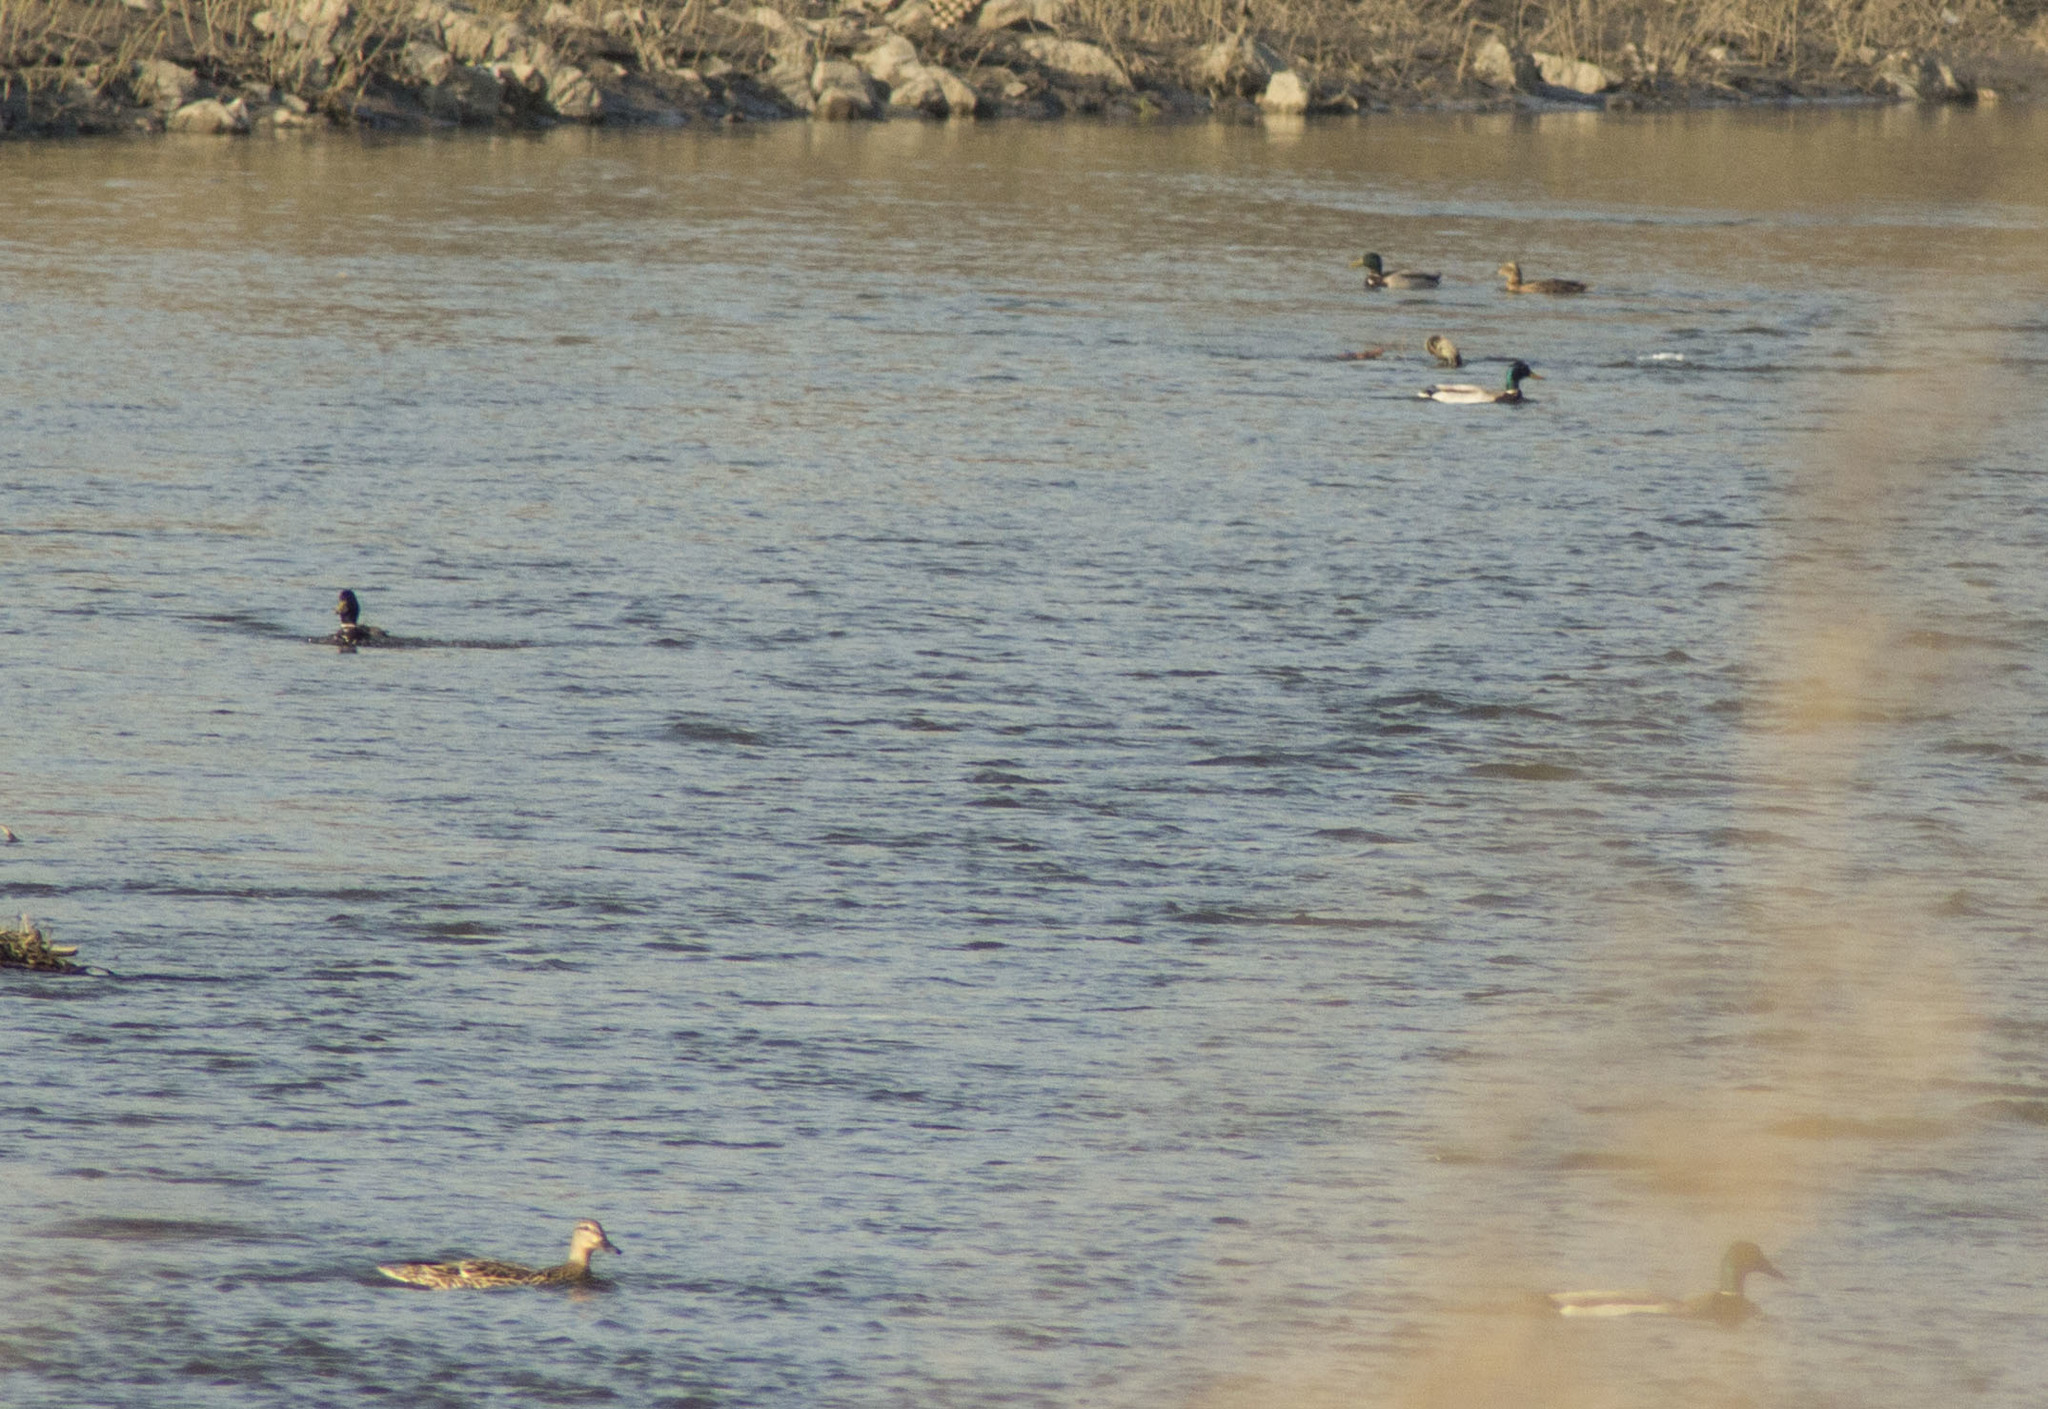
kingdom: Animalia
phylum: Chordata
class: Aves
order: Anseriformes
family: Anatidae
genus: Anas
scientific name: Anas platyrhynchos
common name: Mallard
